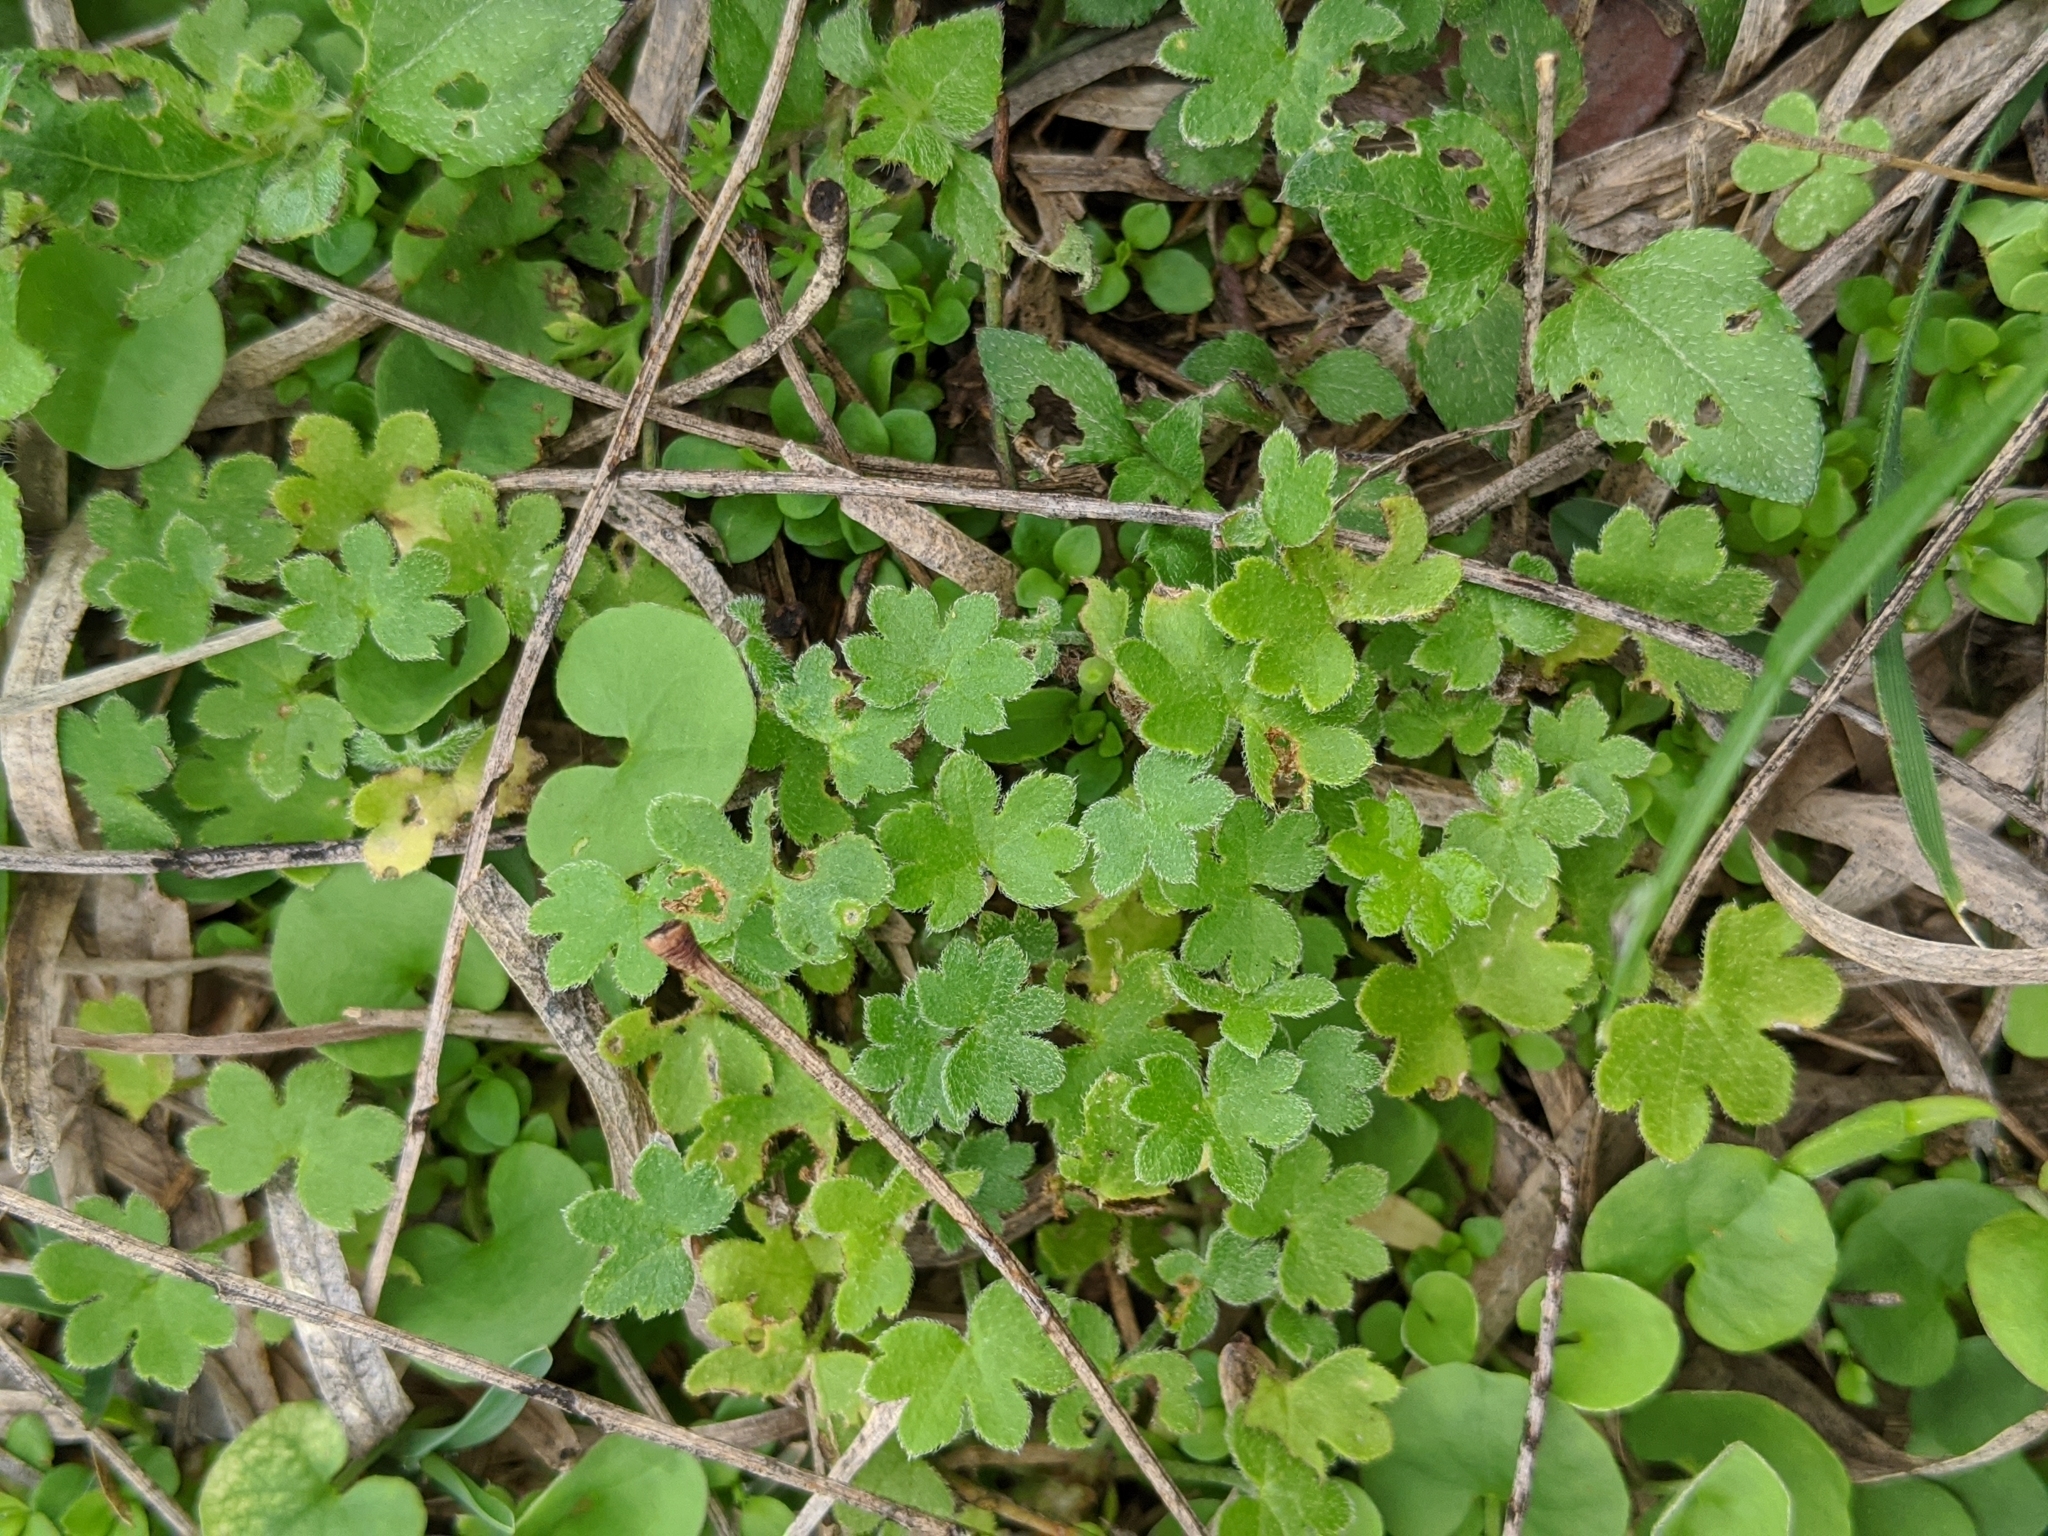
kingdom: Plantae
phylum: Tracheophyta
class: Magnoliopsida
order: Apiales
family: Apiaceae
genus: Bowlesia
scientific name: Bowlesia incana
